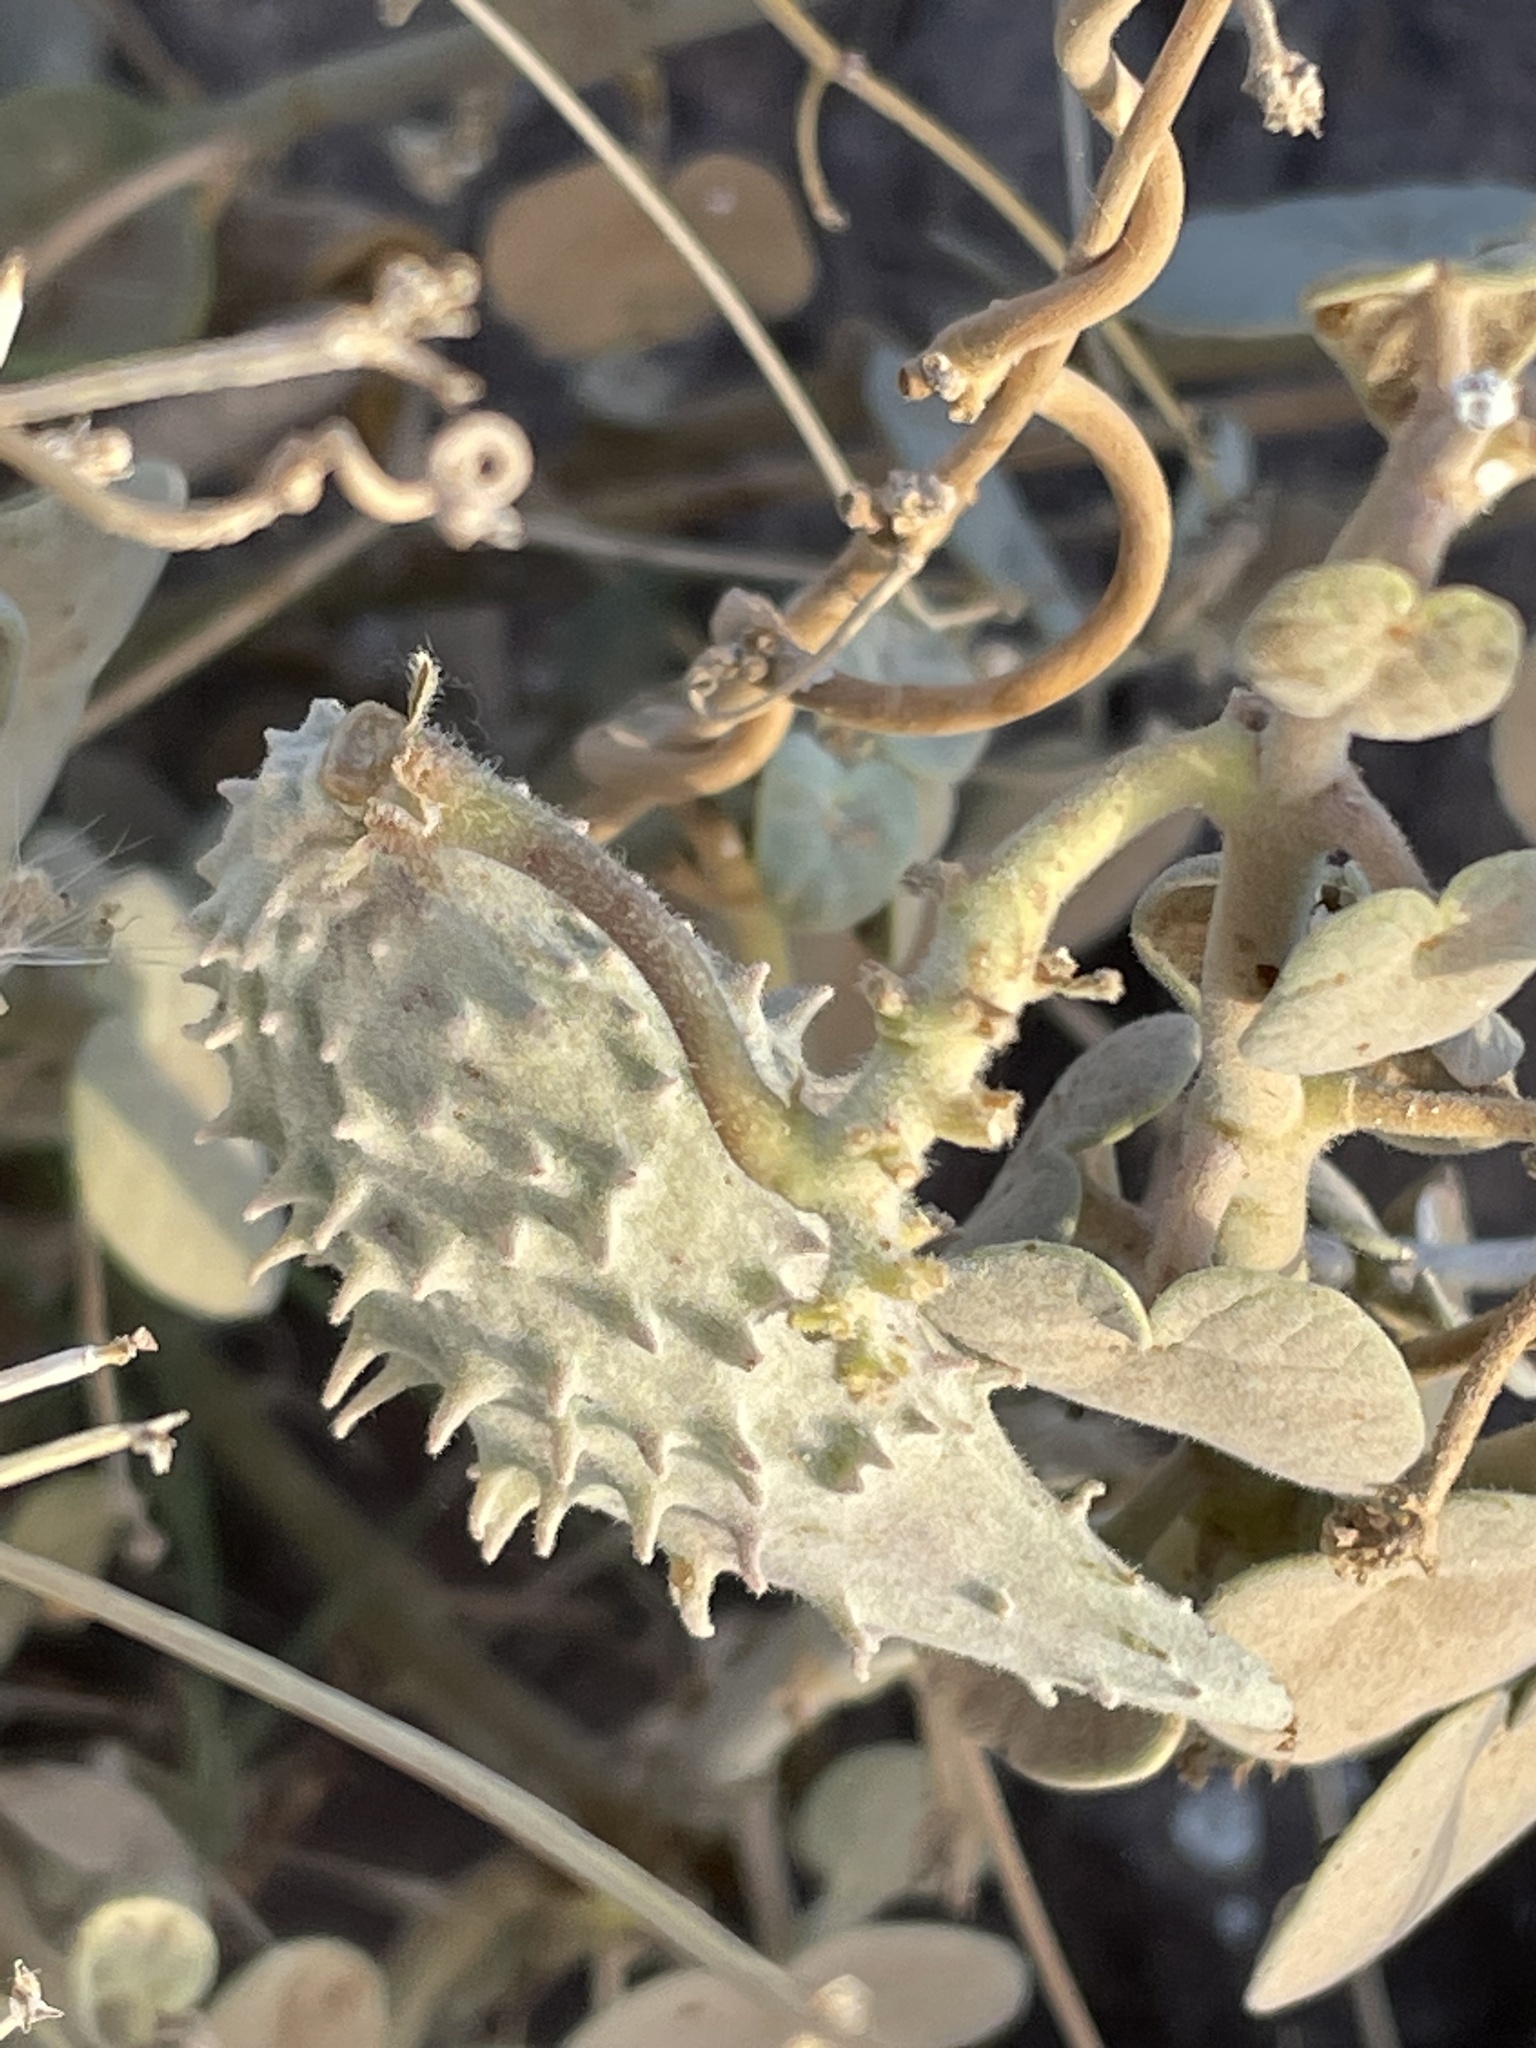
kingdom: Plantae
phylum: Tracheophyta
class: Magnoliopsida
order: Gentianales
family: Apocynaceae
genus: Pergularia
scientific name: Pergularia tomentosa
